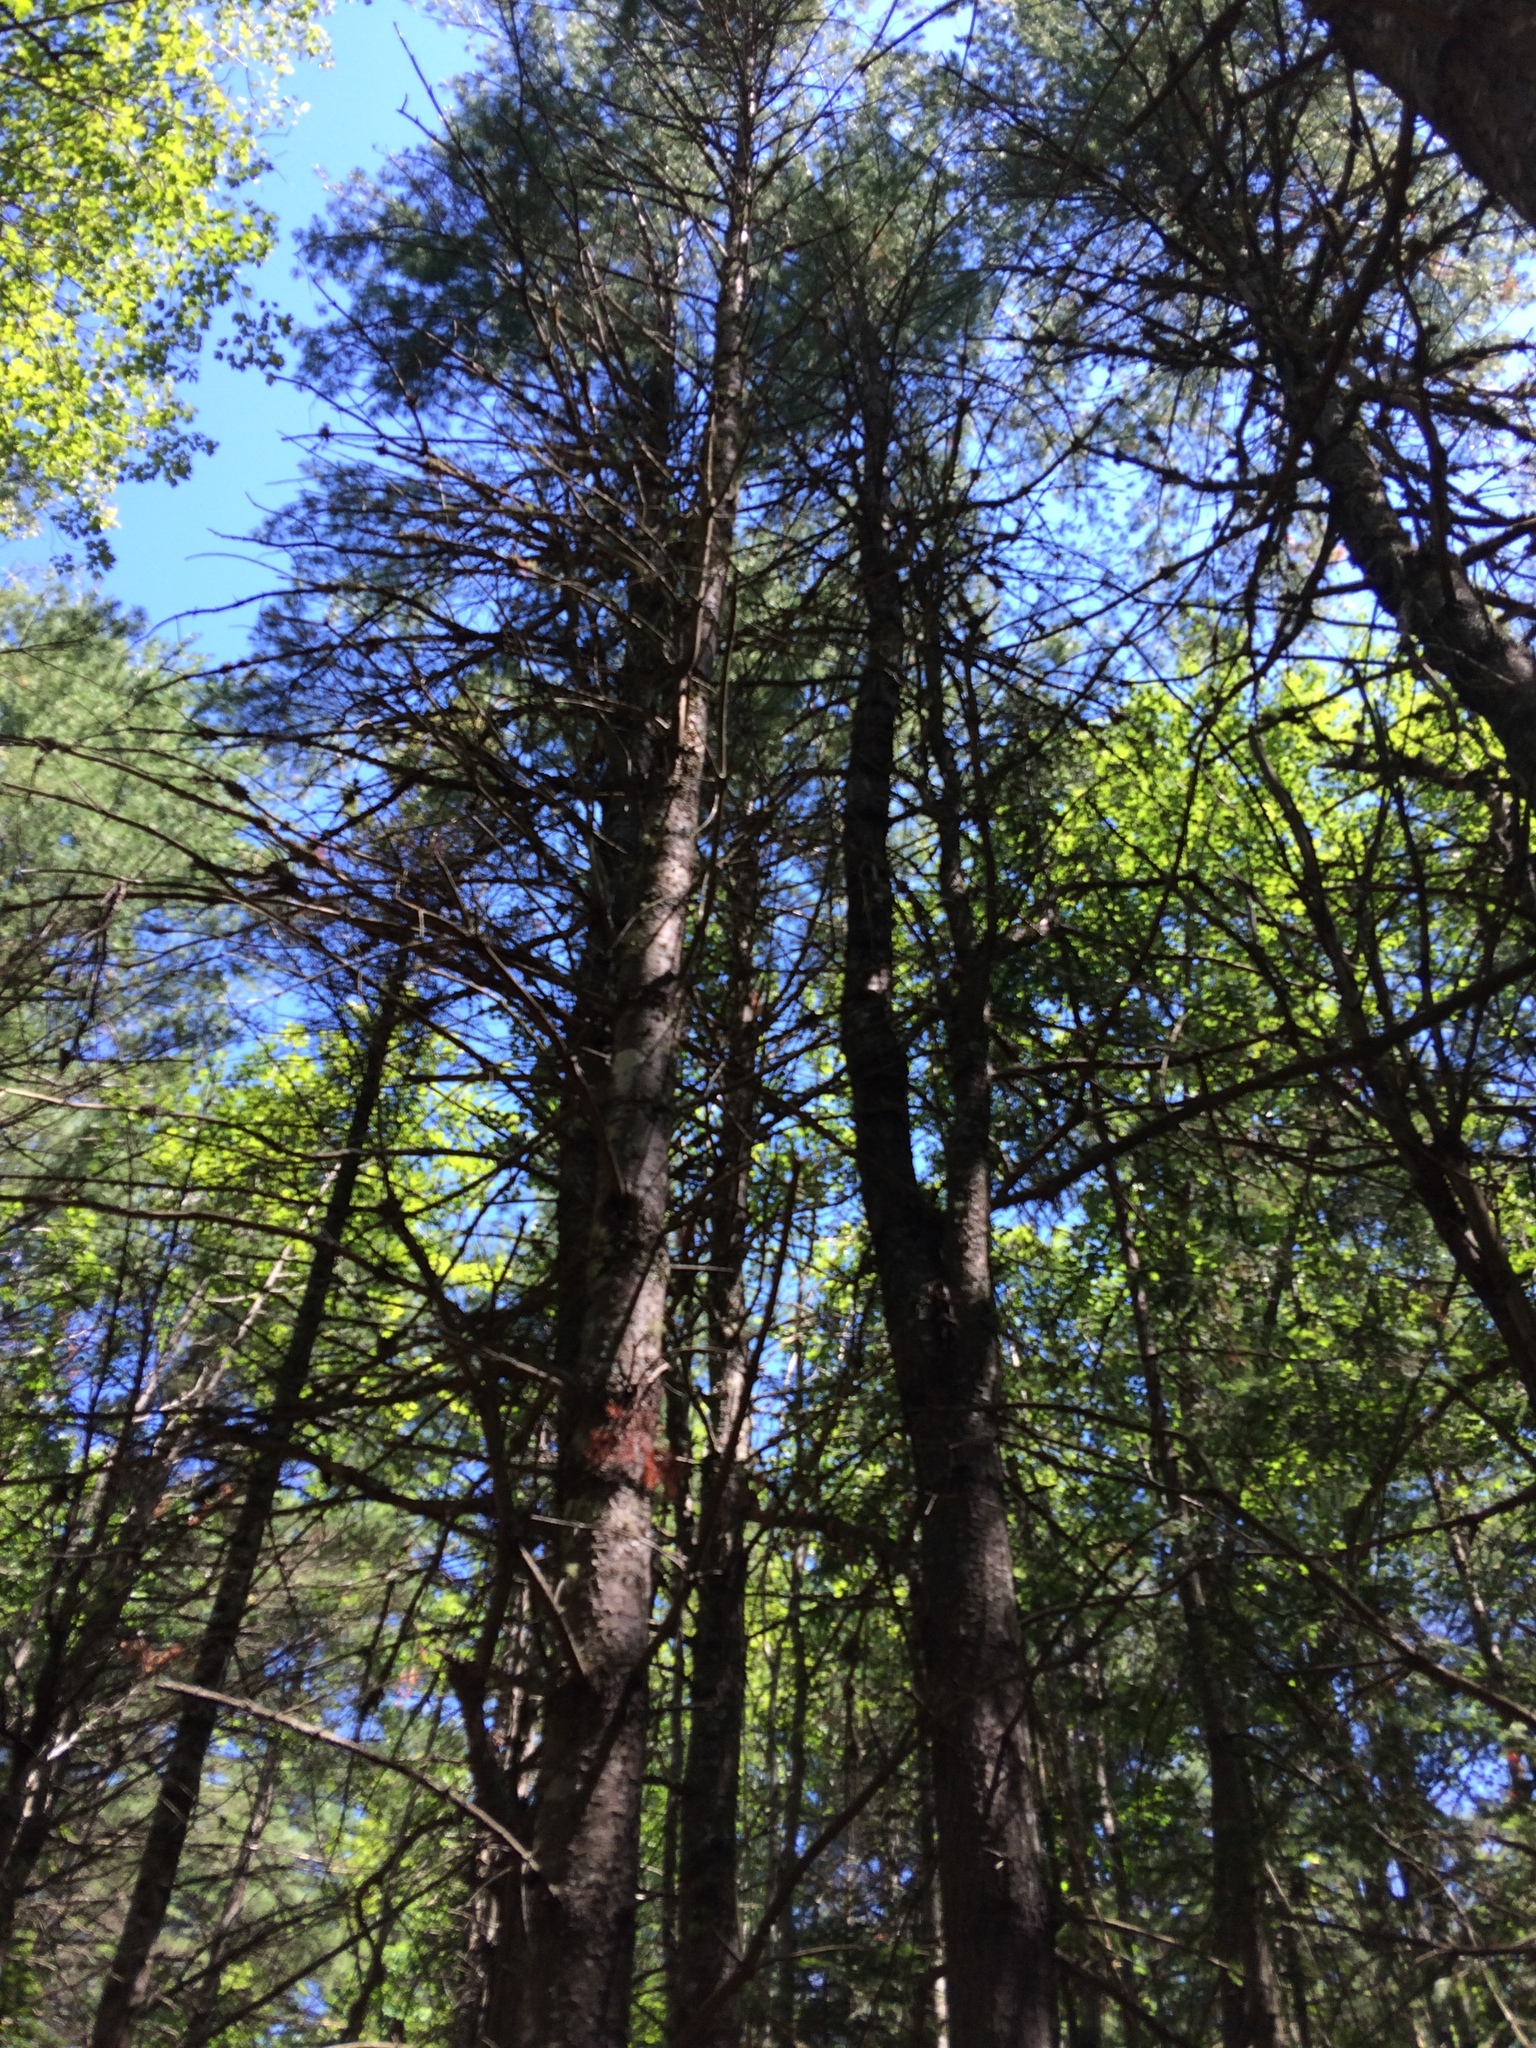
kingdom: Plantae
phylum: Tracheophyta
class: Pinopsida
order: Pinales
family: Pinaceae
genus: Pinus
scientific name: Pinus strobus
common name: Weymouth pine
